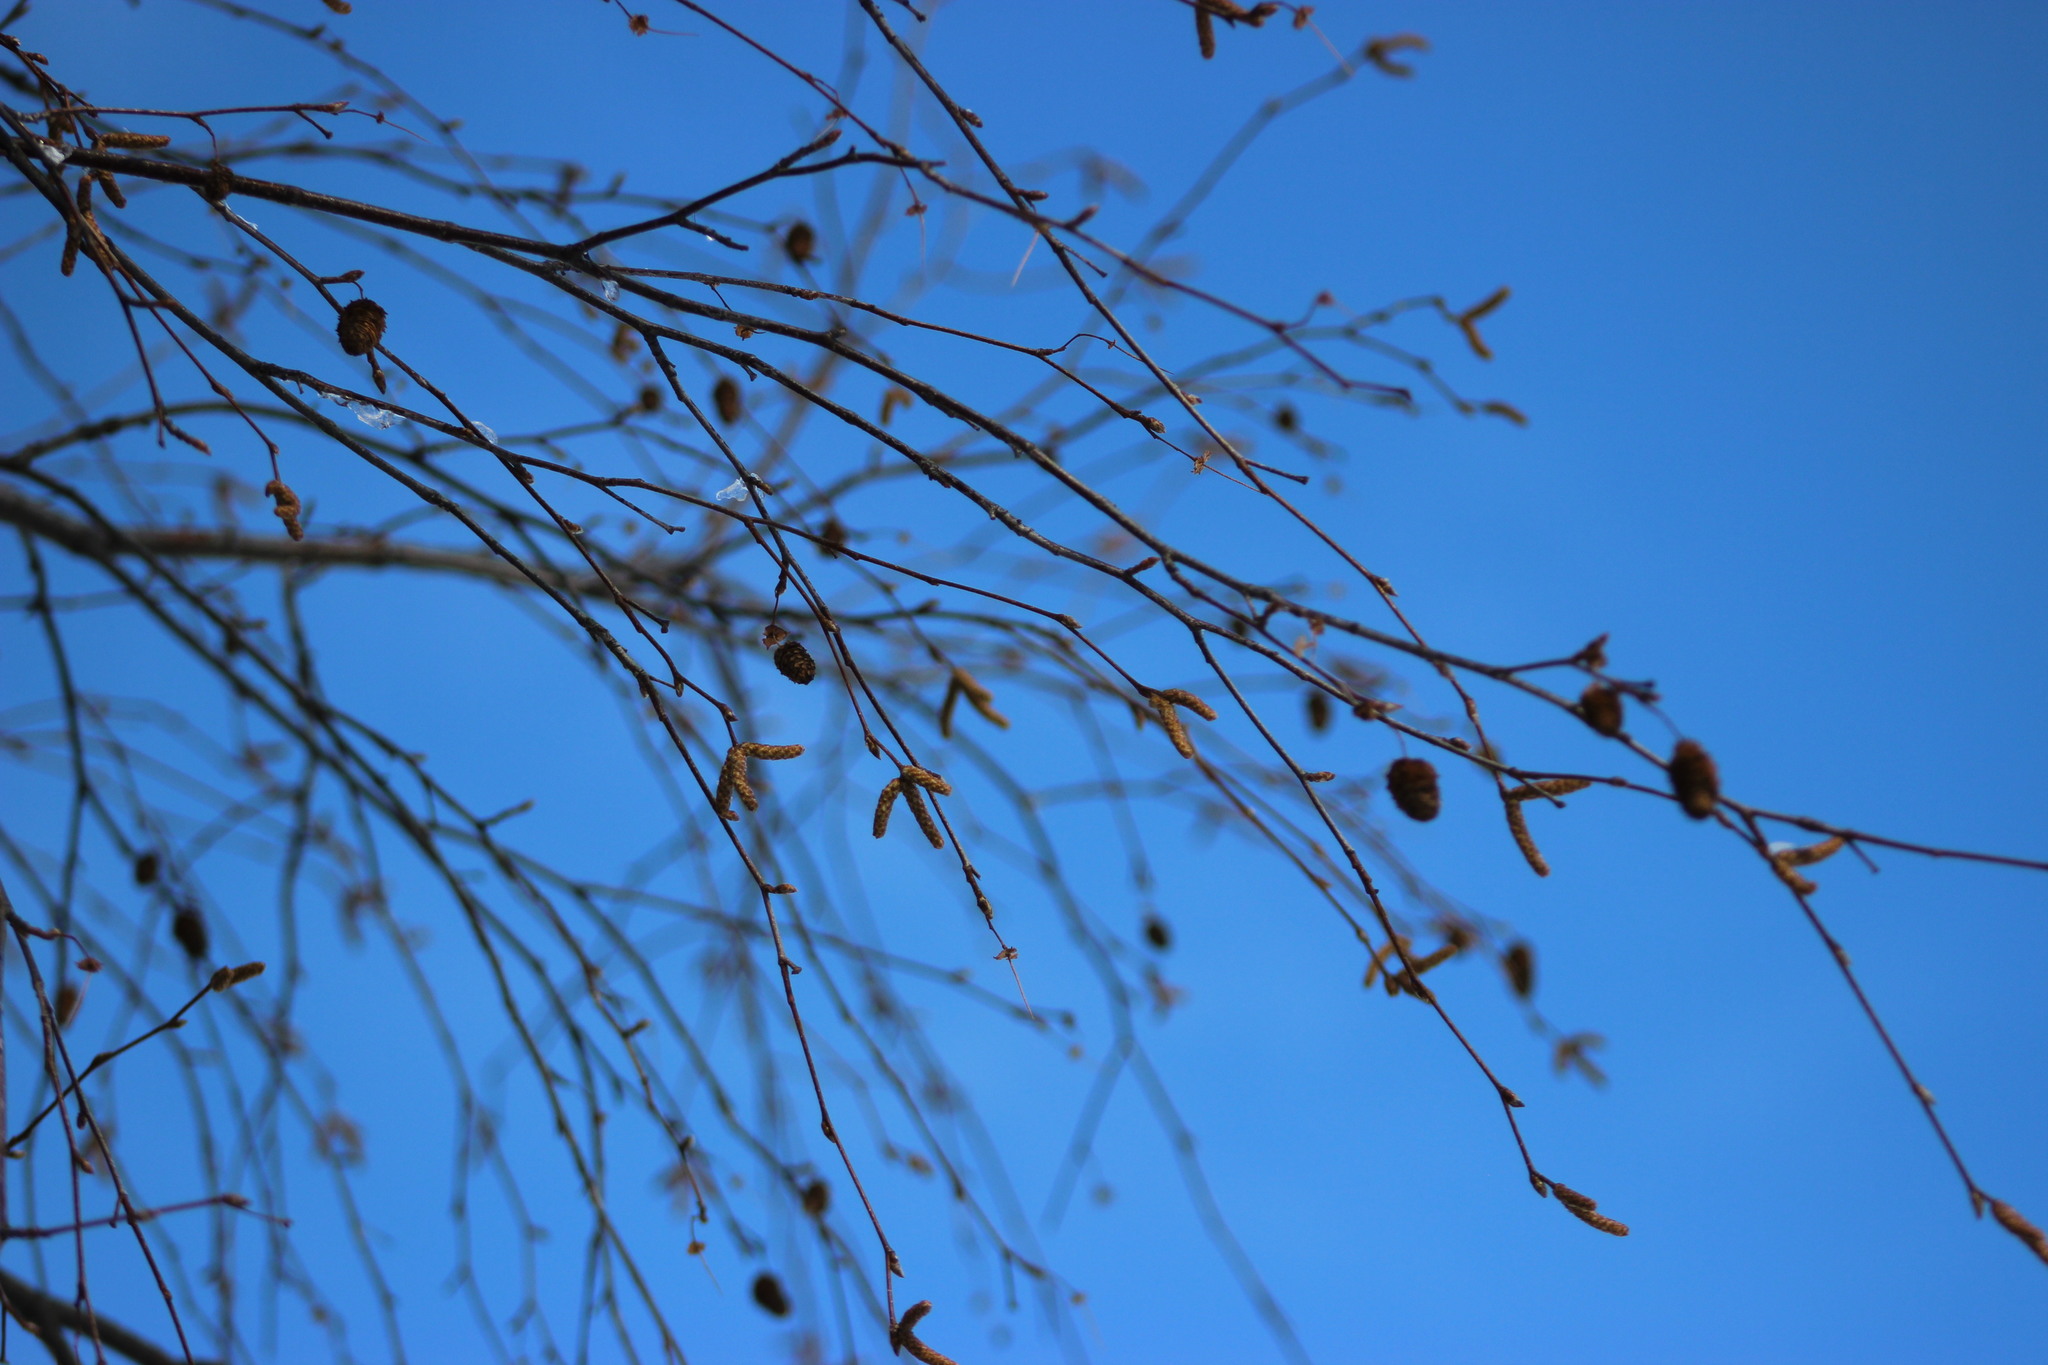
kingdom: Plantae
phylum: Tracheophyta
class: Magnoliopsida
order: Fagales
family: Betulaceae
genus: Betula
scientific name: Betula pubescens
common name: Downy birch
